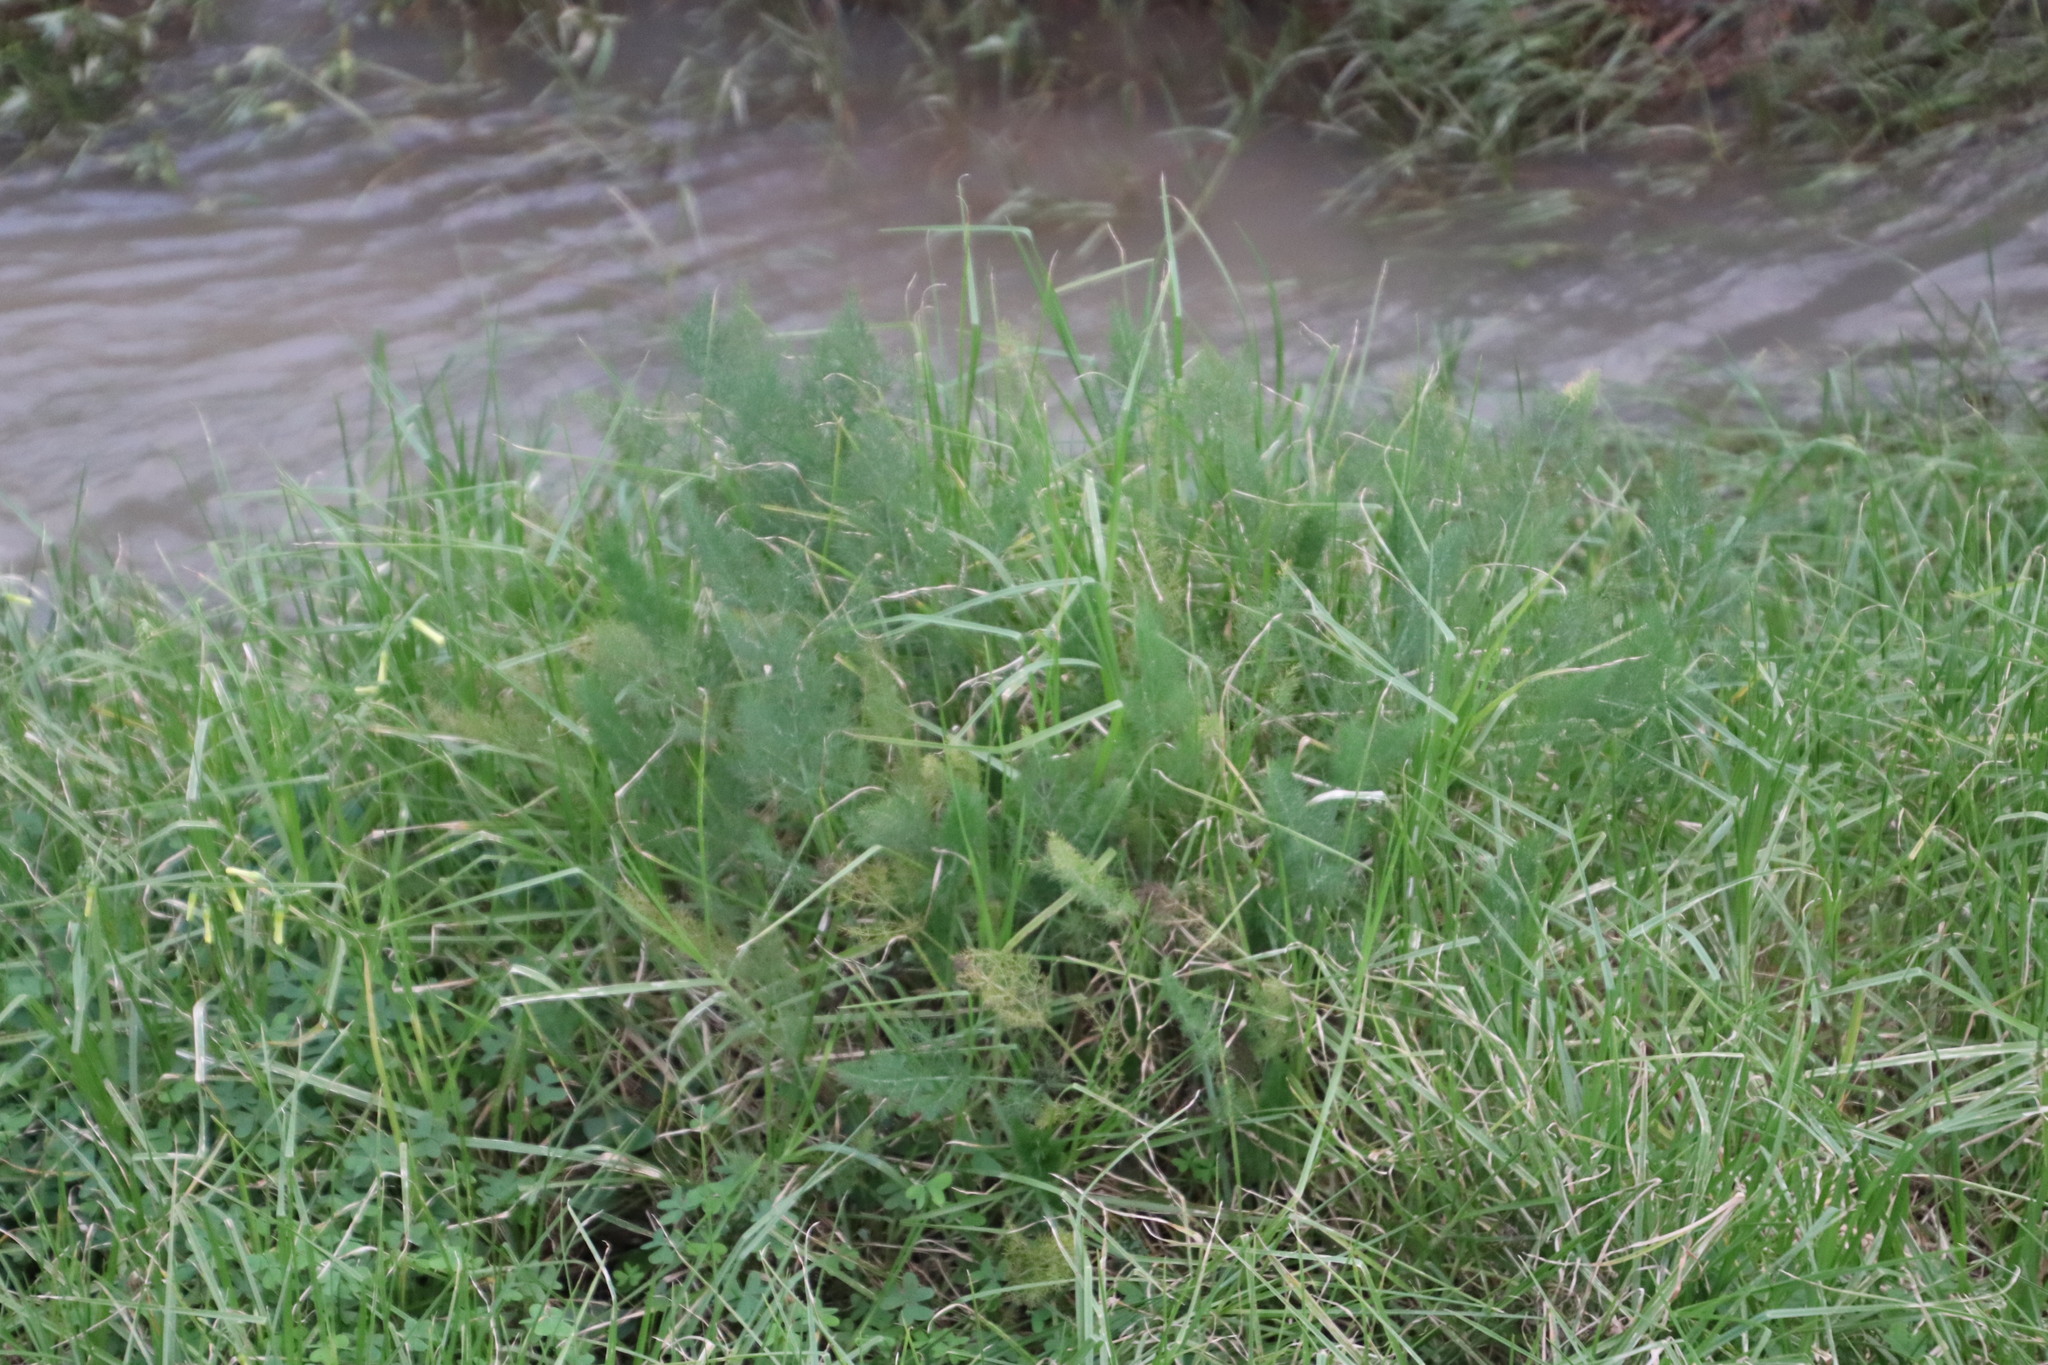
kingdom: Plantae
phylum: Tracheophyta
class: Magnoliopsida
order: Apiales
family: Apiaceae
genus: Foeniculum
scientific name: Foeniculum vulgare
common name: Fennel
